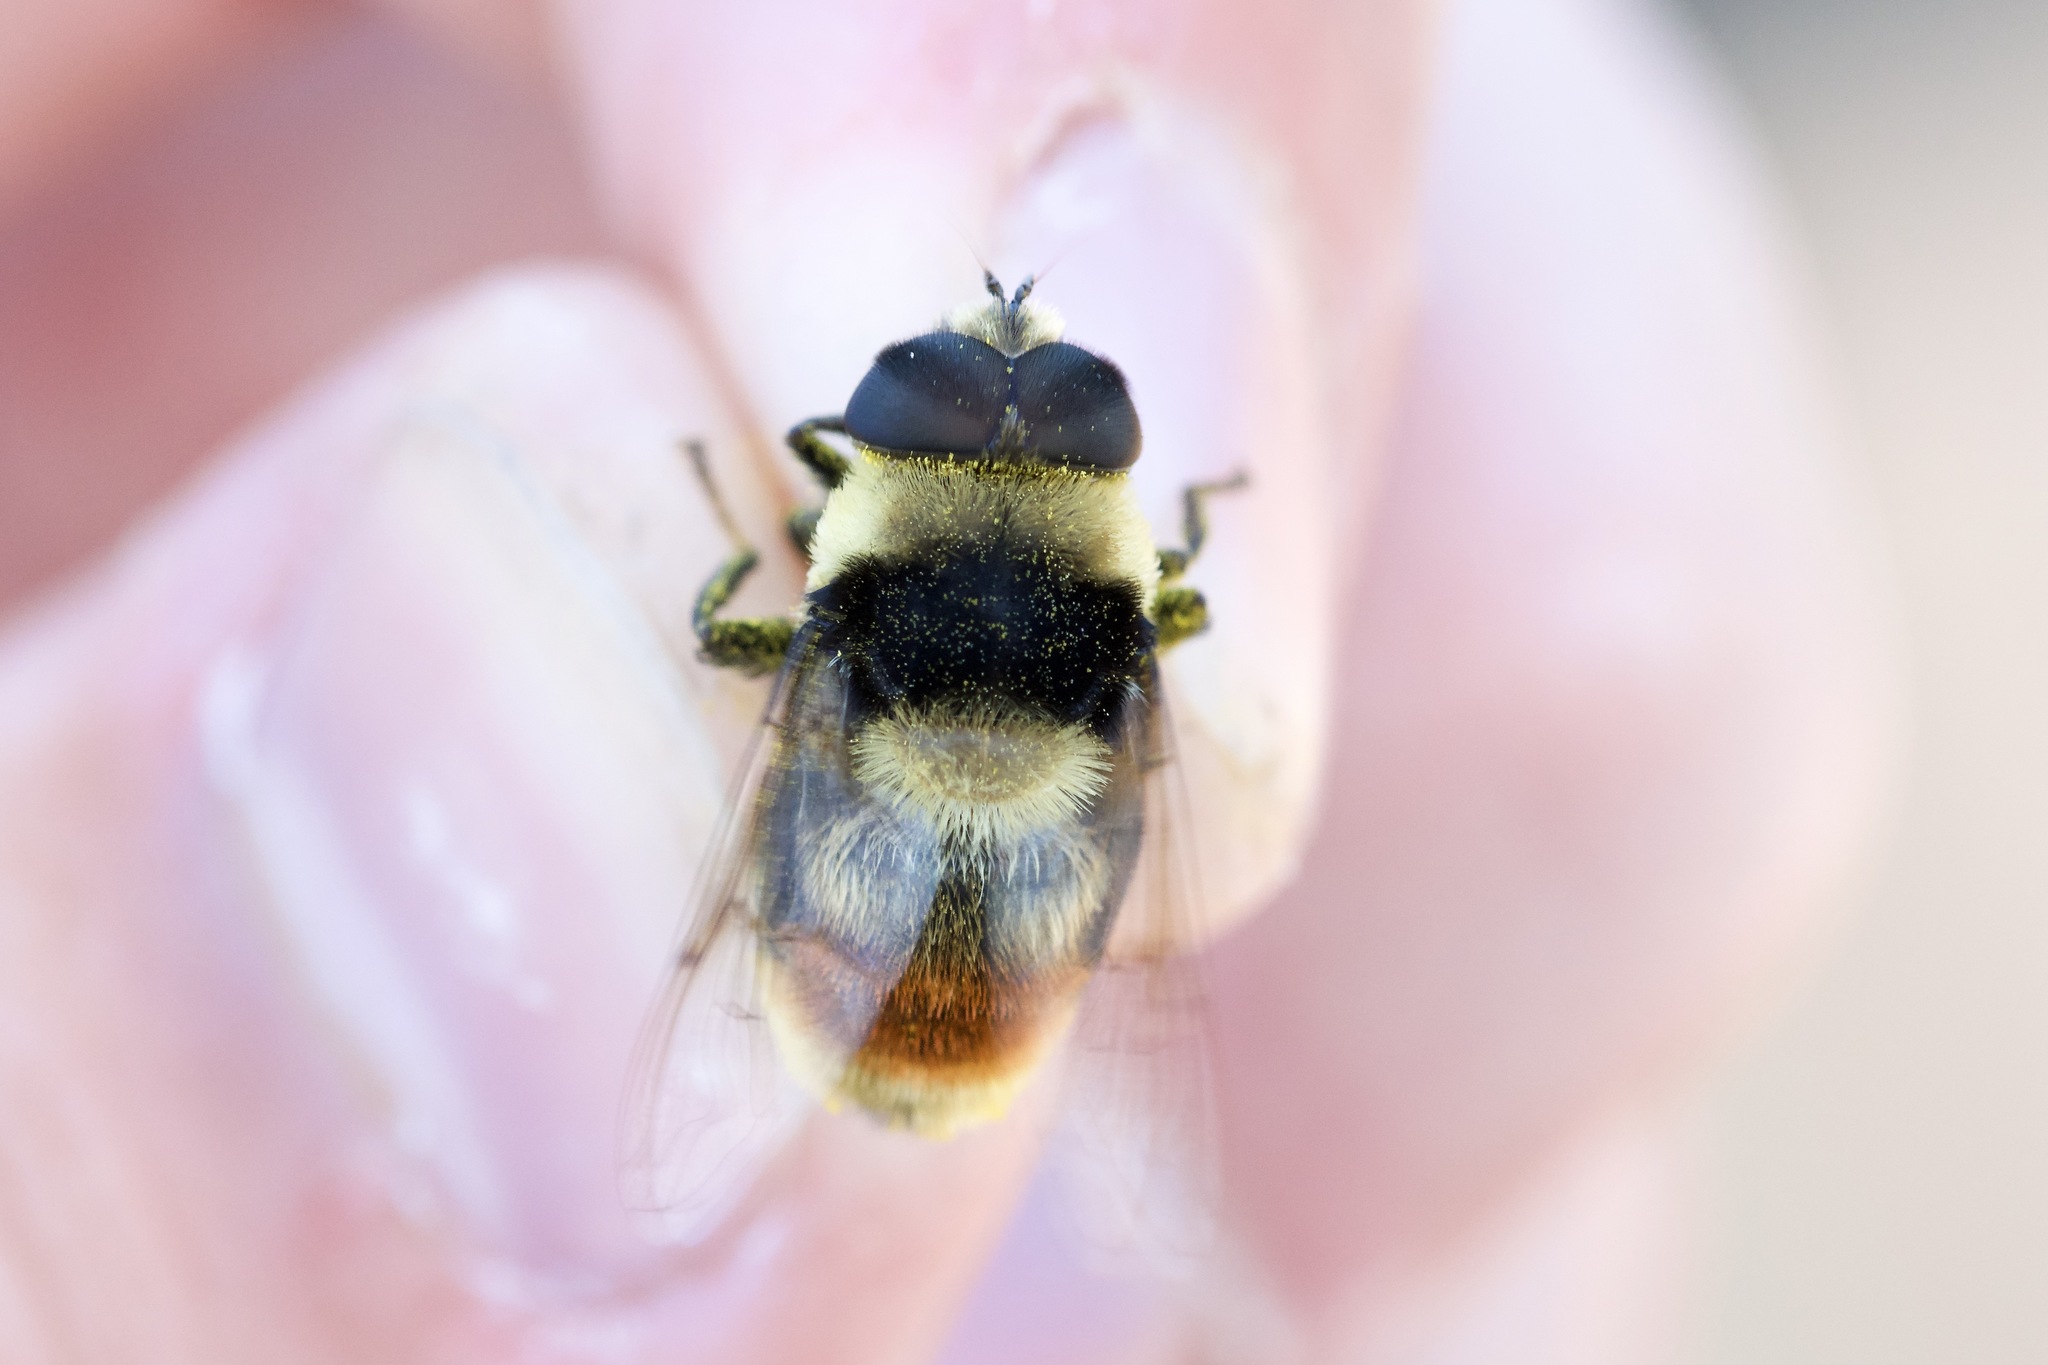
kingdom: Animalia
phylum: Arthropoda
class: Insecta
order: Diptera
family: Syrphidae
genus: Eristalis
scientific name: Eristalis flavipes
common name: Orange-legged drone fly
